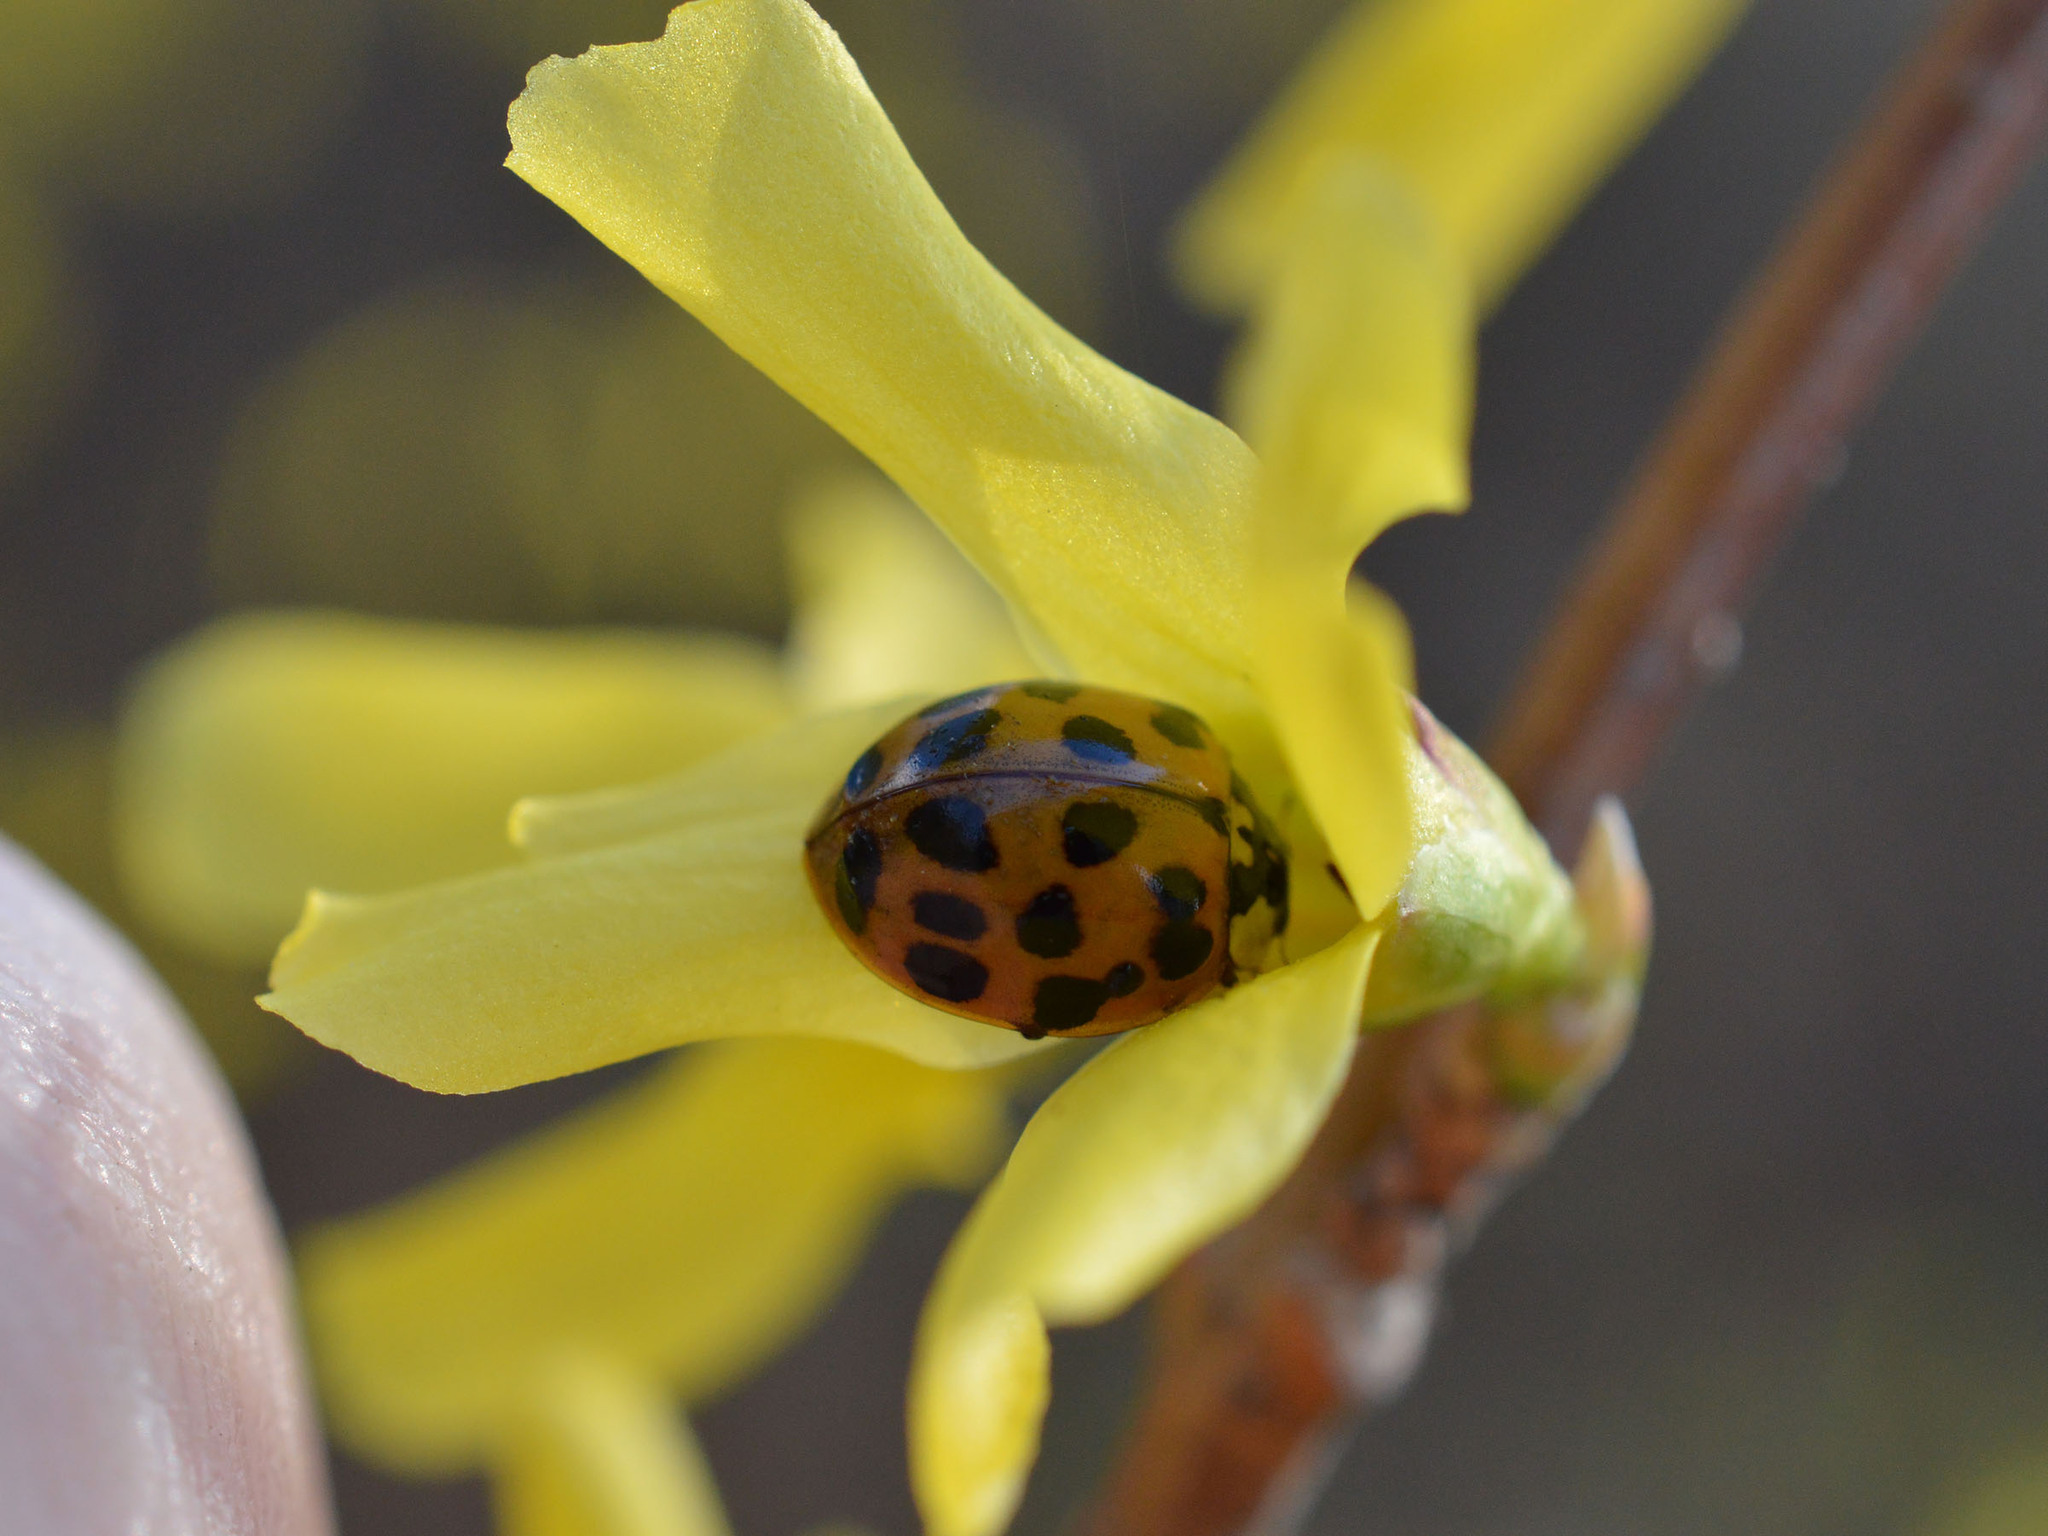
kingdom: Animalia
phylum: Arthropoda
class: Insecta
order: Coleoptera
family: Coccinellidae
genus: Harmonia
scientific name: Harmonia axyridis
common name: Harlequin ladybird
